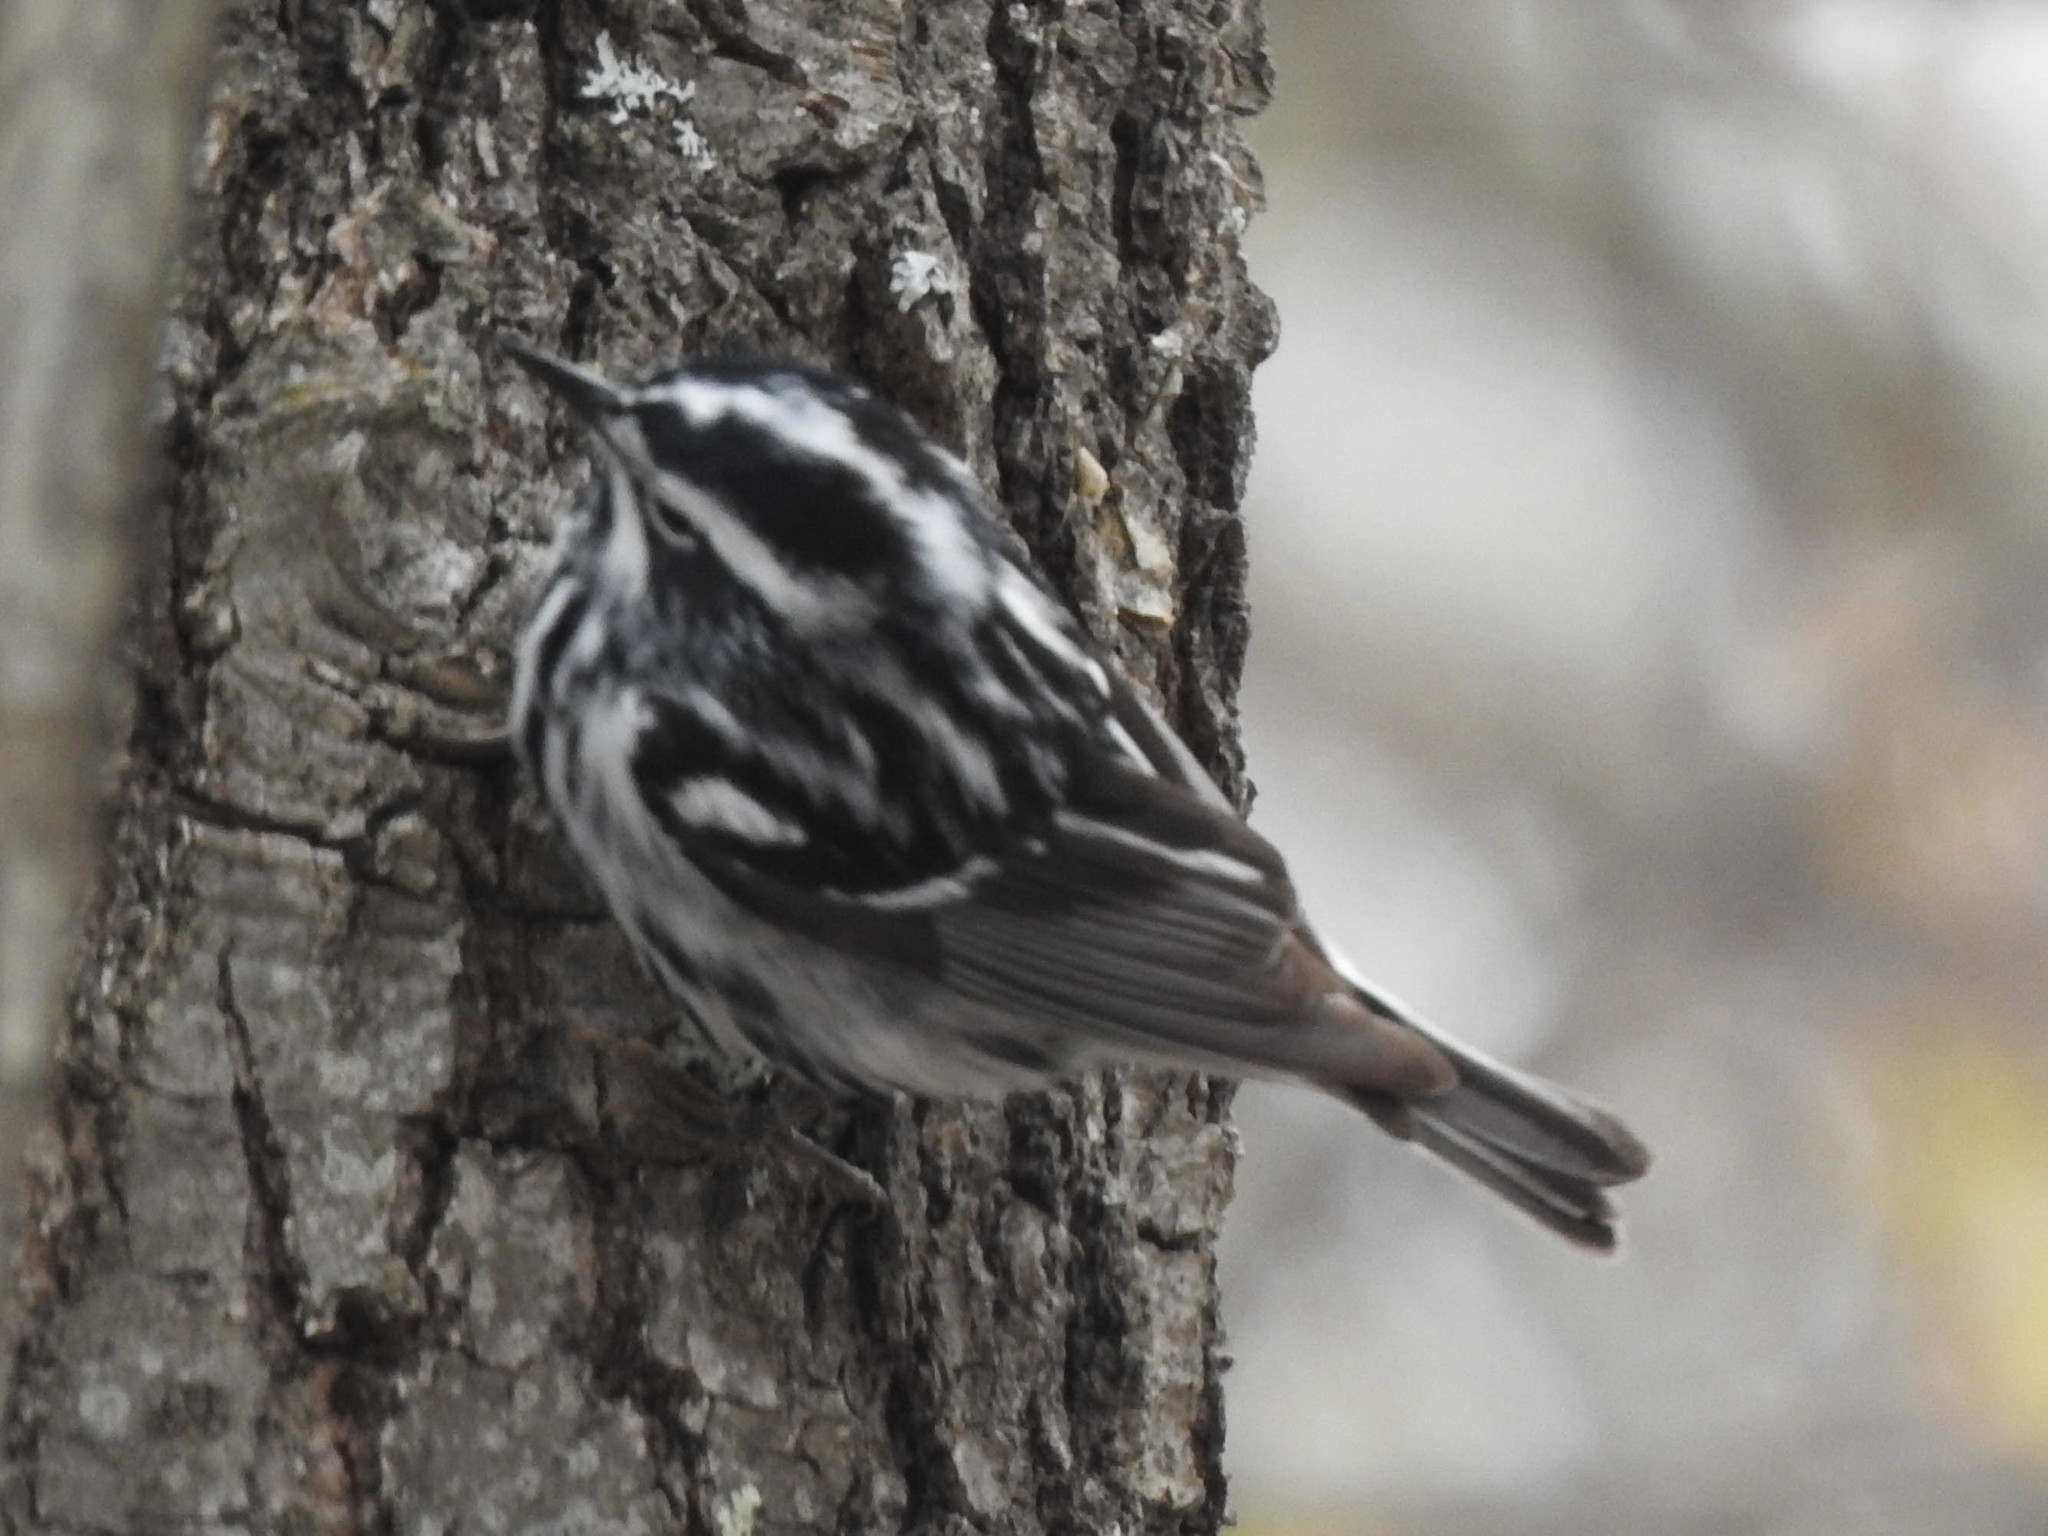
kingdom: Animalia
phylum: Chordata
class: Aves
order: Passeriformes
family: Parulidae
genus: Mniotilta
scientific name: Mniotilta varia
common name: Black-and-white warbler
